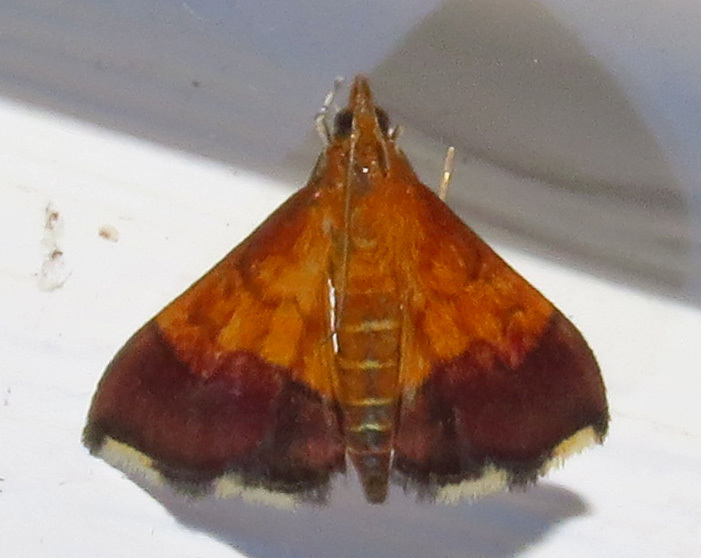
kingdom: Animalia
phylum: Arthropoda
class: Insecta
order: Lepidoptera
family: Crambidae
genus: Pyrausta
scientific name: Pyrausta bicoloralis
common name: Bicolored pyrausta moth
